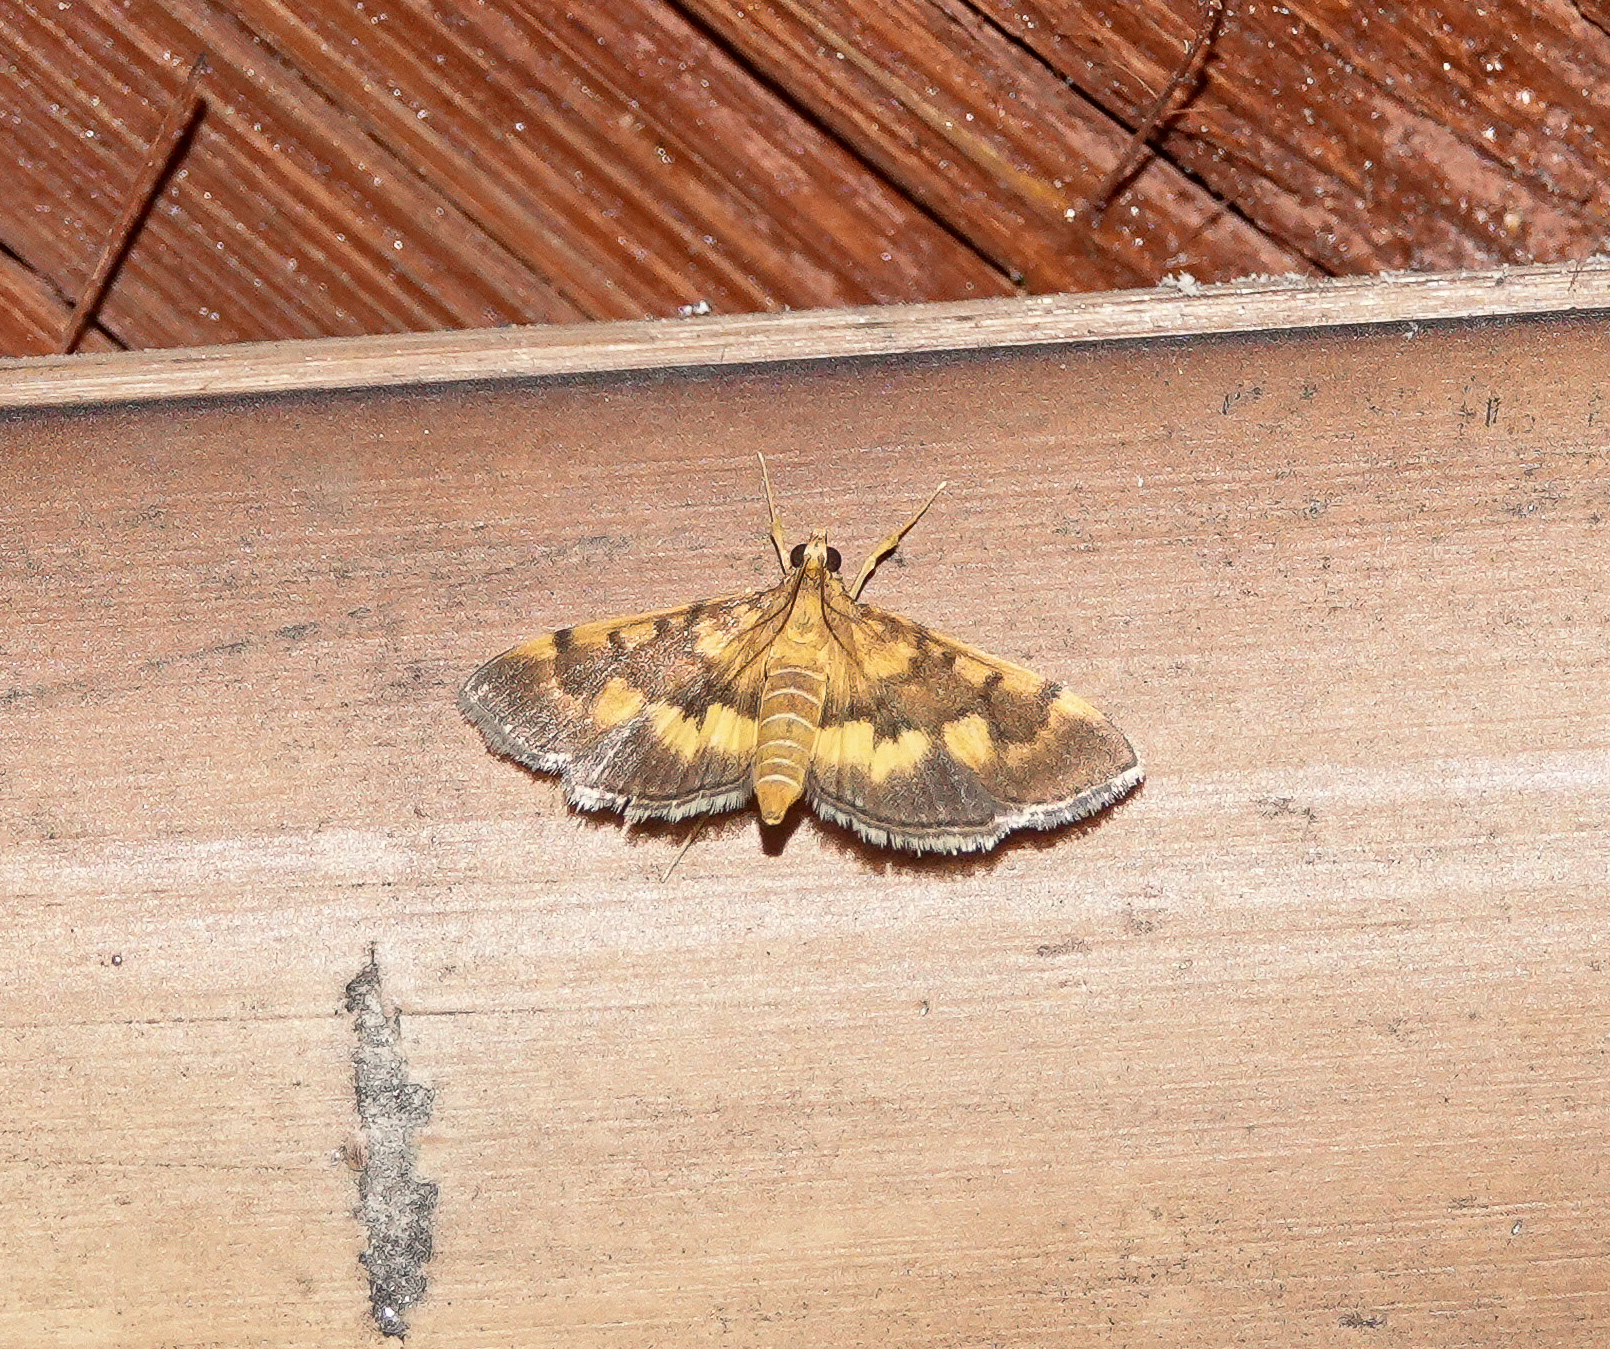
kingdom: Animalia
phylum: Arthropoda
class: Insecta
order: Lepidoptera
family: Crambidae
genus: Omiodes
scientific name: Omiodes diemenalis
